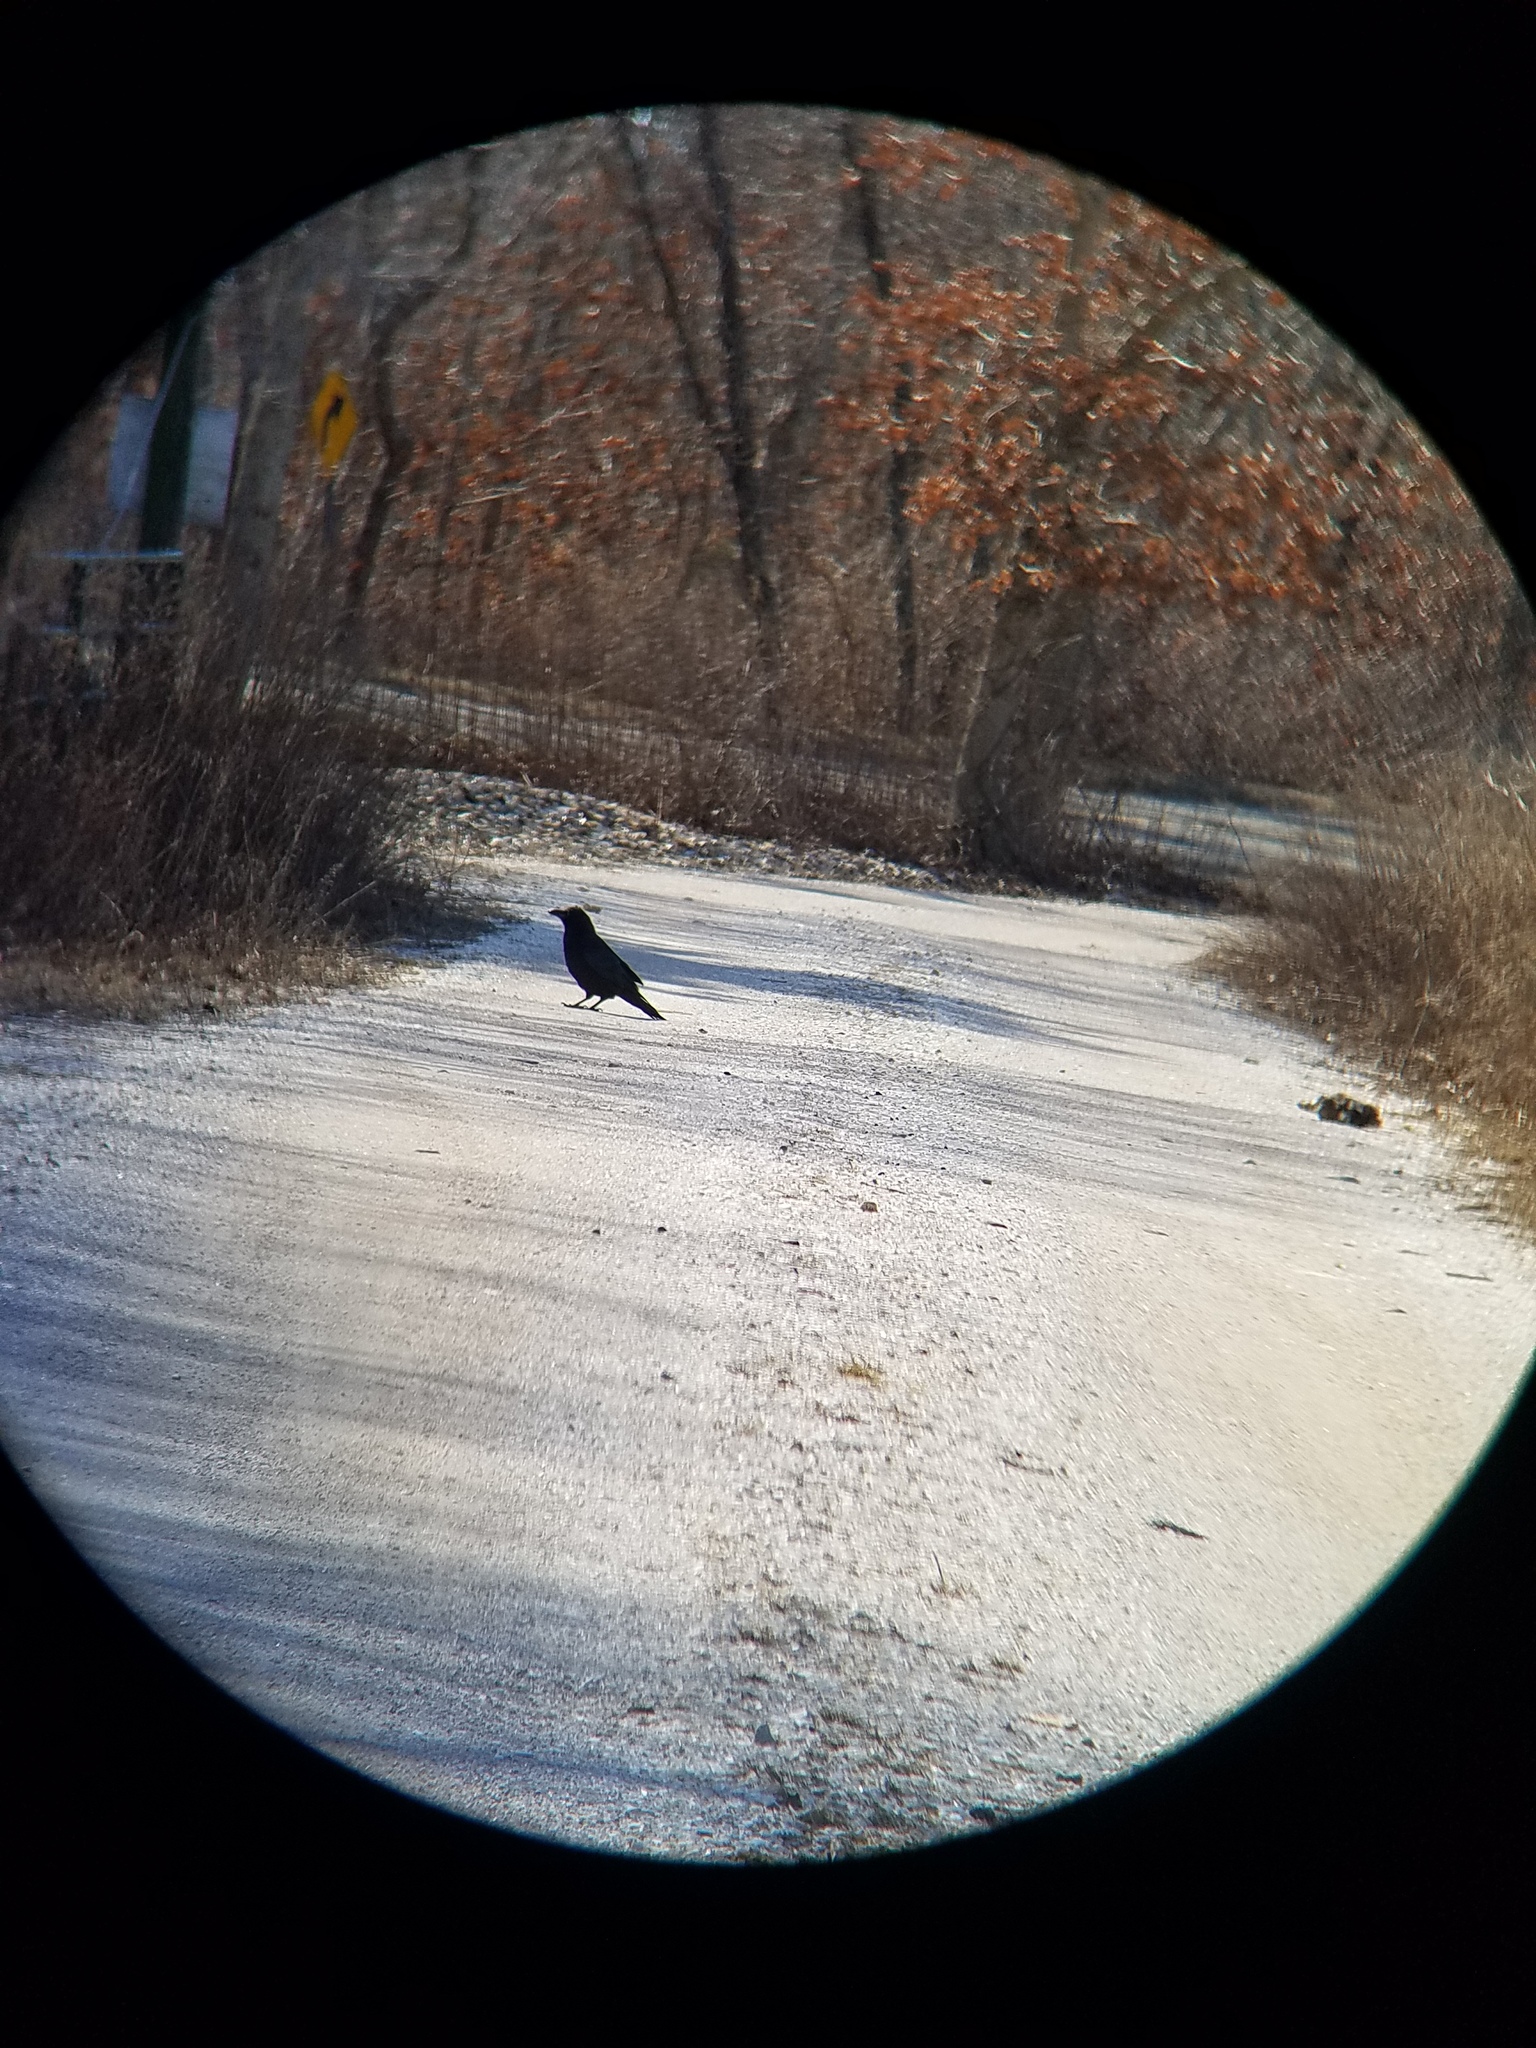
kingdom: Animalia
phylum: Chordata
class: Aves
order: Passeriformes
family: Corvidae
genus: Corvus
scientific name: Corvus corax
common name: Common raven
